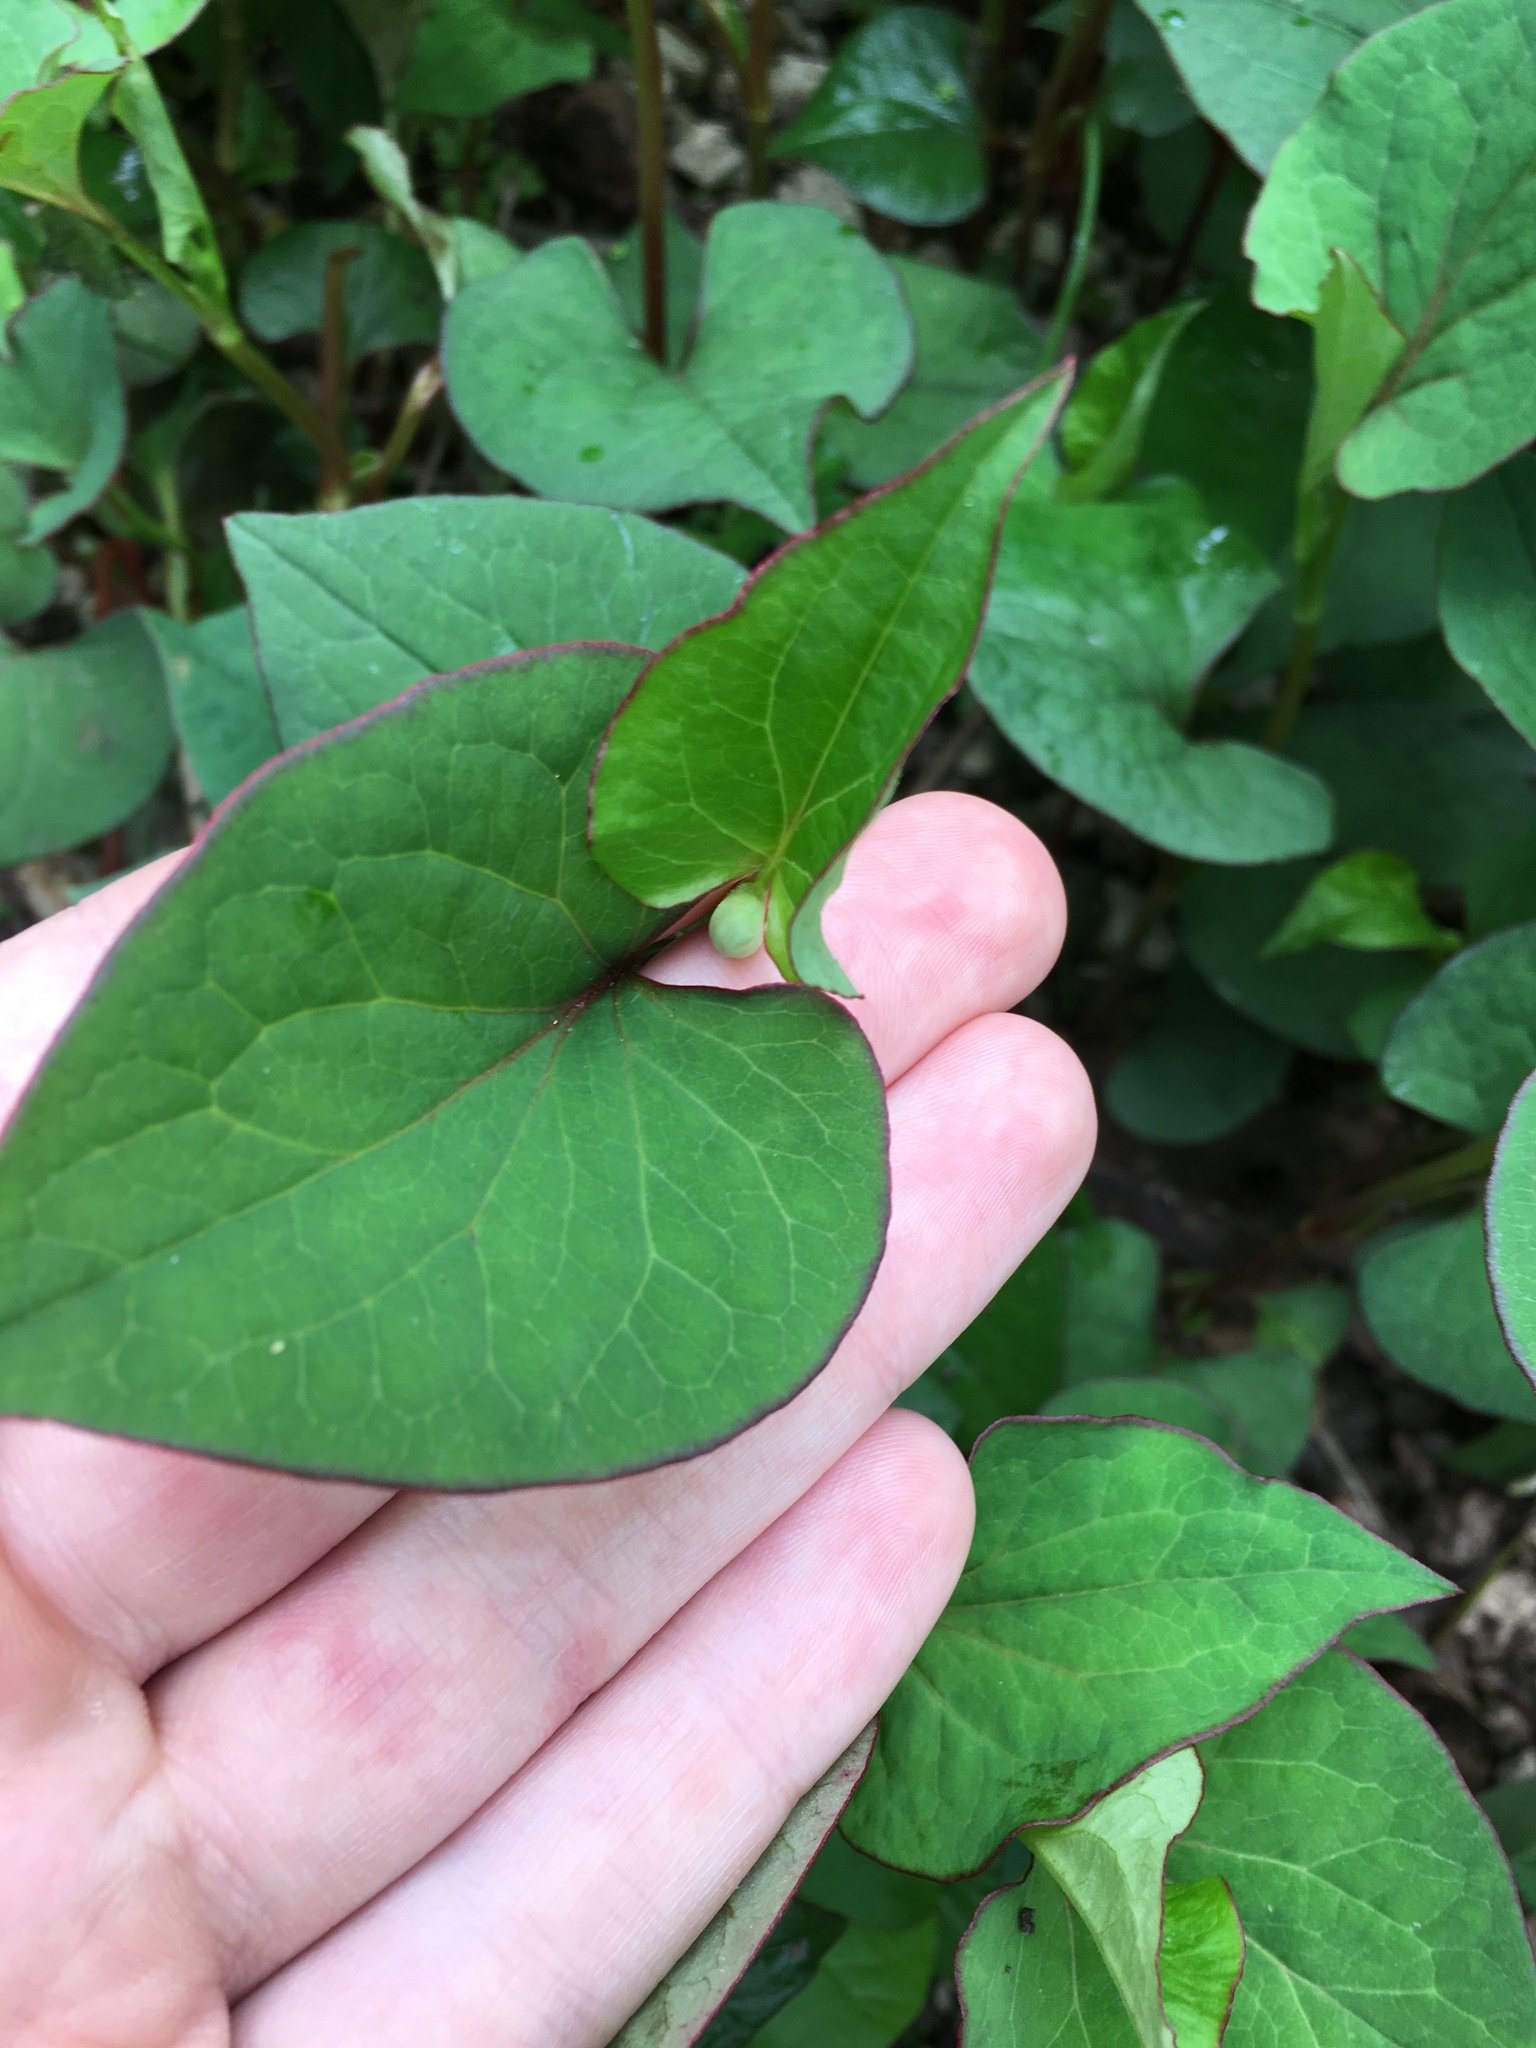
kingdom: Plantae
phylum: Tracheophyta
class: Magnoliopsida
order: Piperales
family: Saururaceae
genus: Houttuynia
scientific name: Houttuynia cordata
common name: Chameleon
